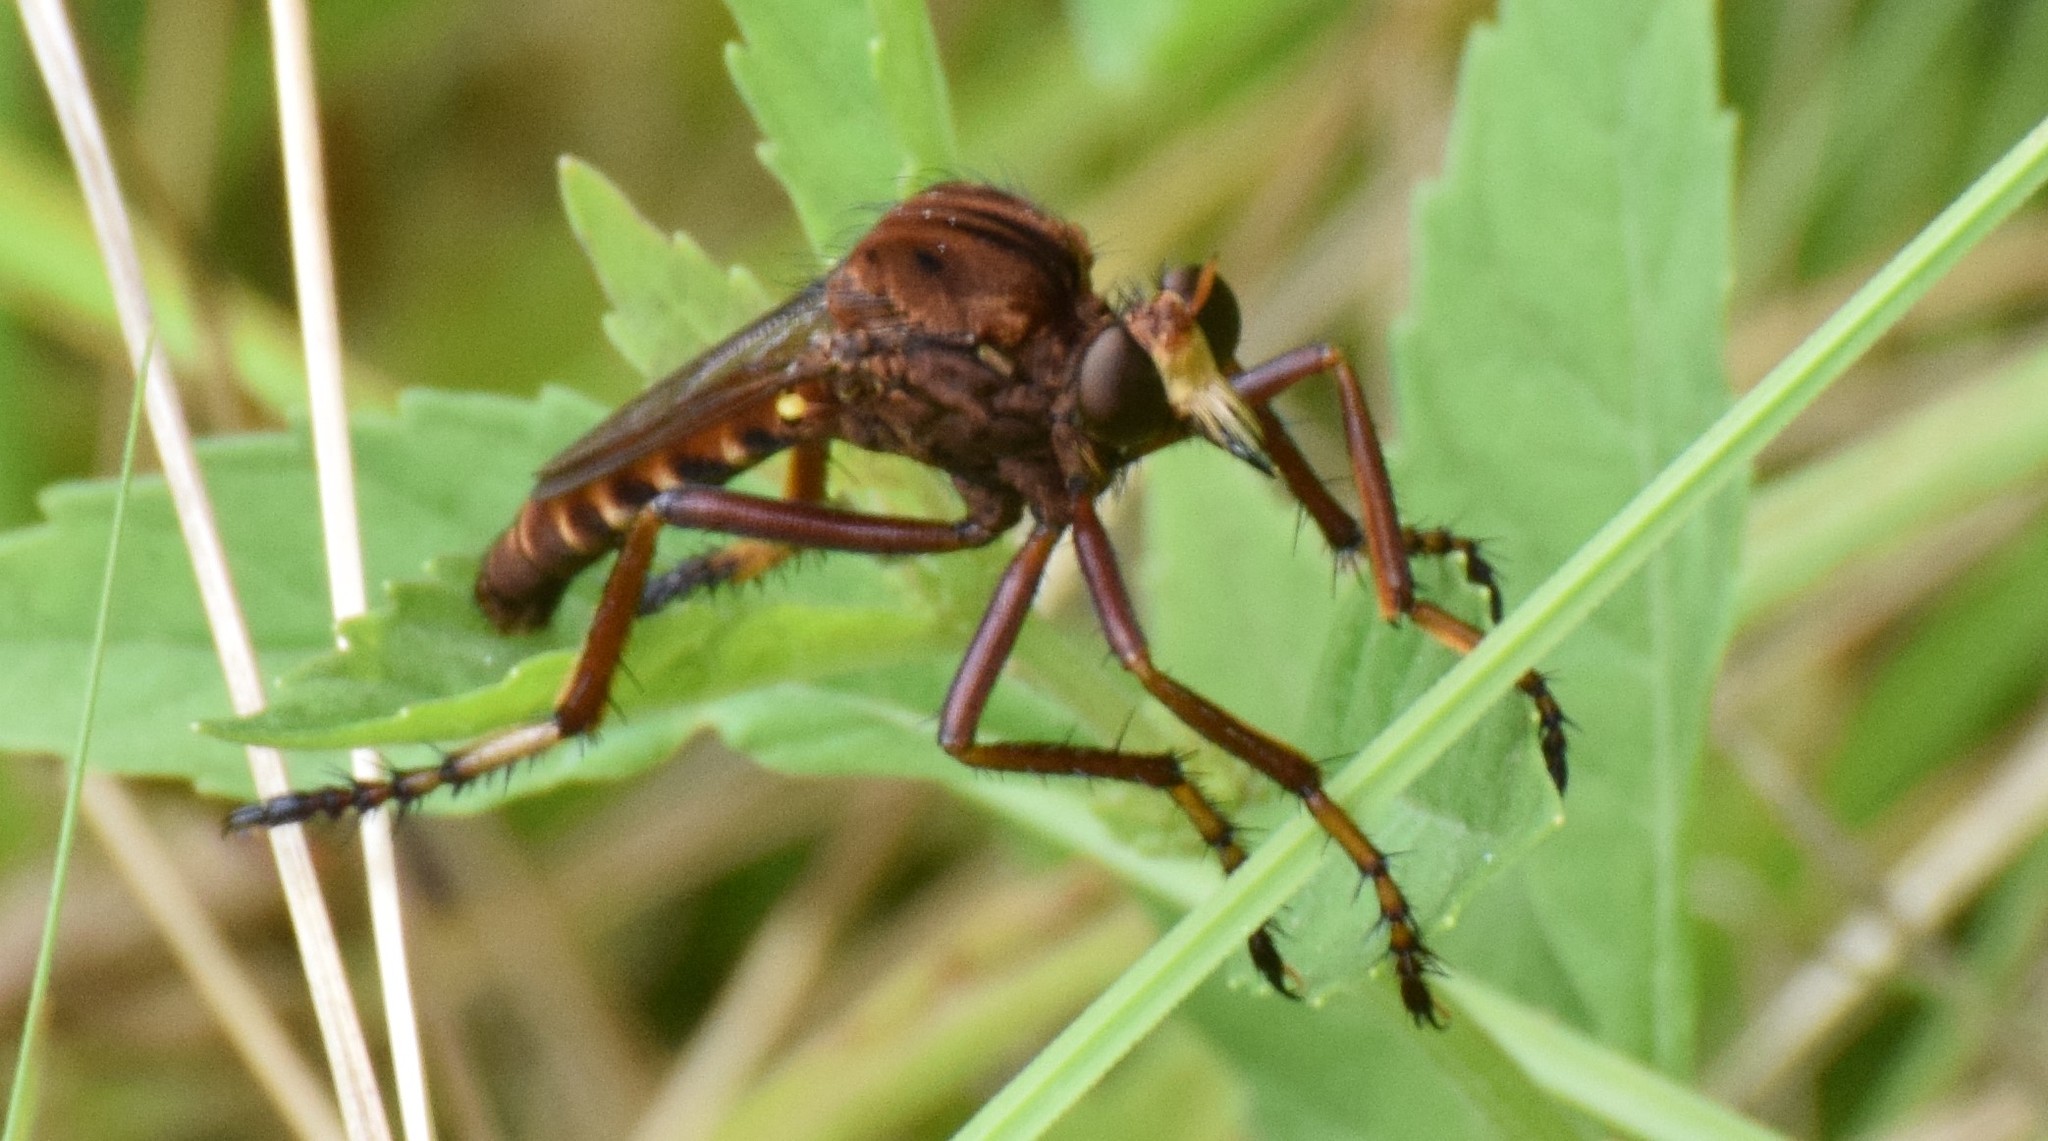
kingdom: Animalia
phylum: Arthropoda
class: Insecta
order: Diptera
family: Asilidae
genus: Diogmites
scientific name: Diogmites basalis
